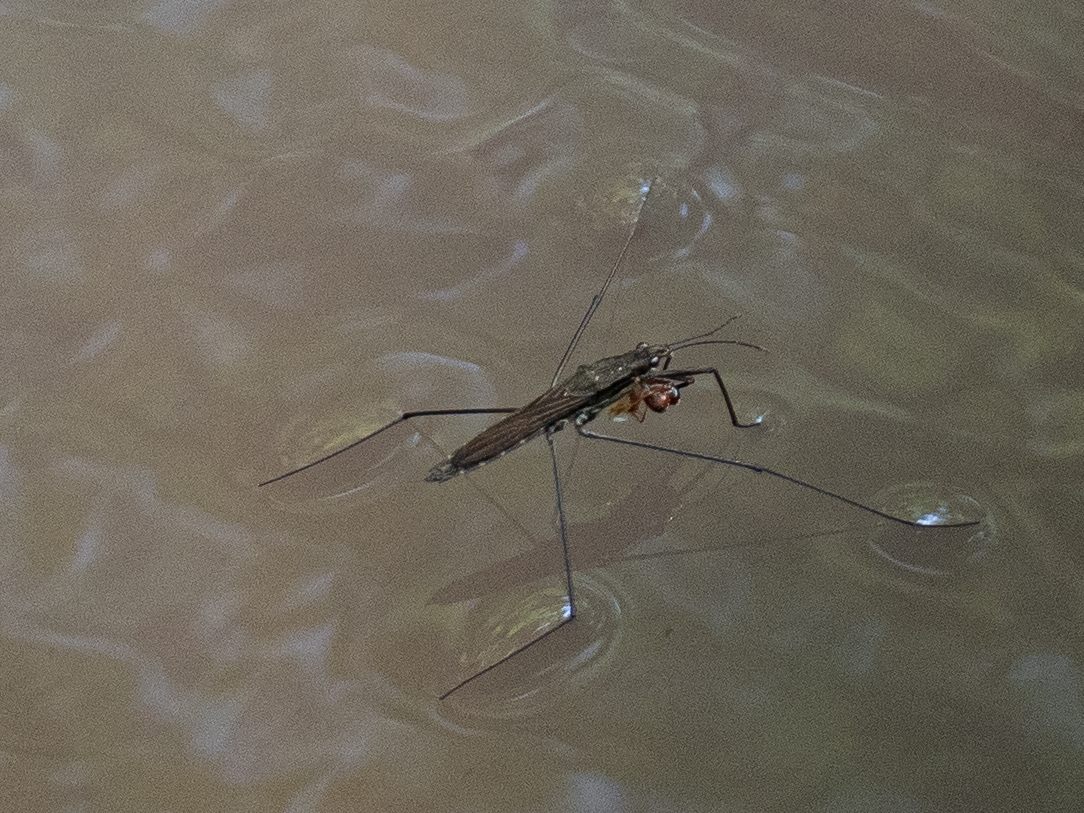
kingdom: Animalia
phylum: Arthropoda
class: Insecta
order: Hemiptera
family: Gerridae
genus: Aquarius
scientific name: Aquarius najas
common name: River skater
